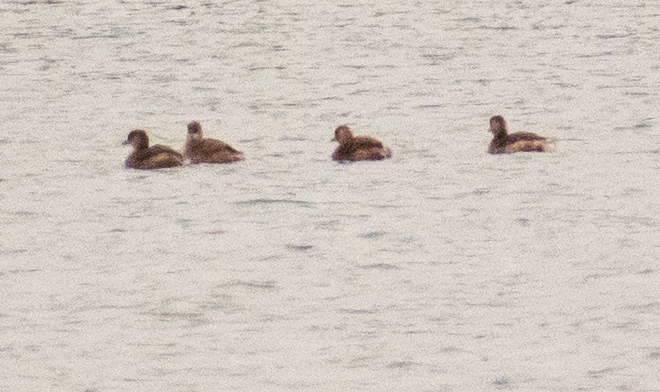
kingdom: Animalia
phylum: Chordata
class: Aves
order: Podicipediformes
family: Podicipedidae
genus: Tachybaptus
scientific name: Tachybaptus ruficollis
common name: Little grebe
